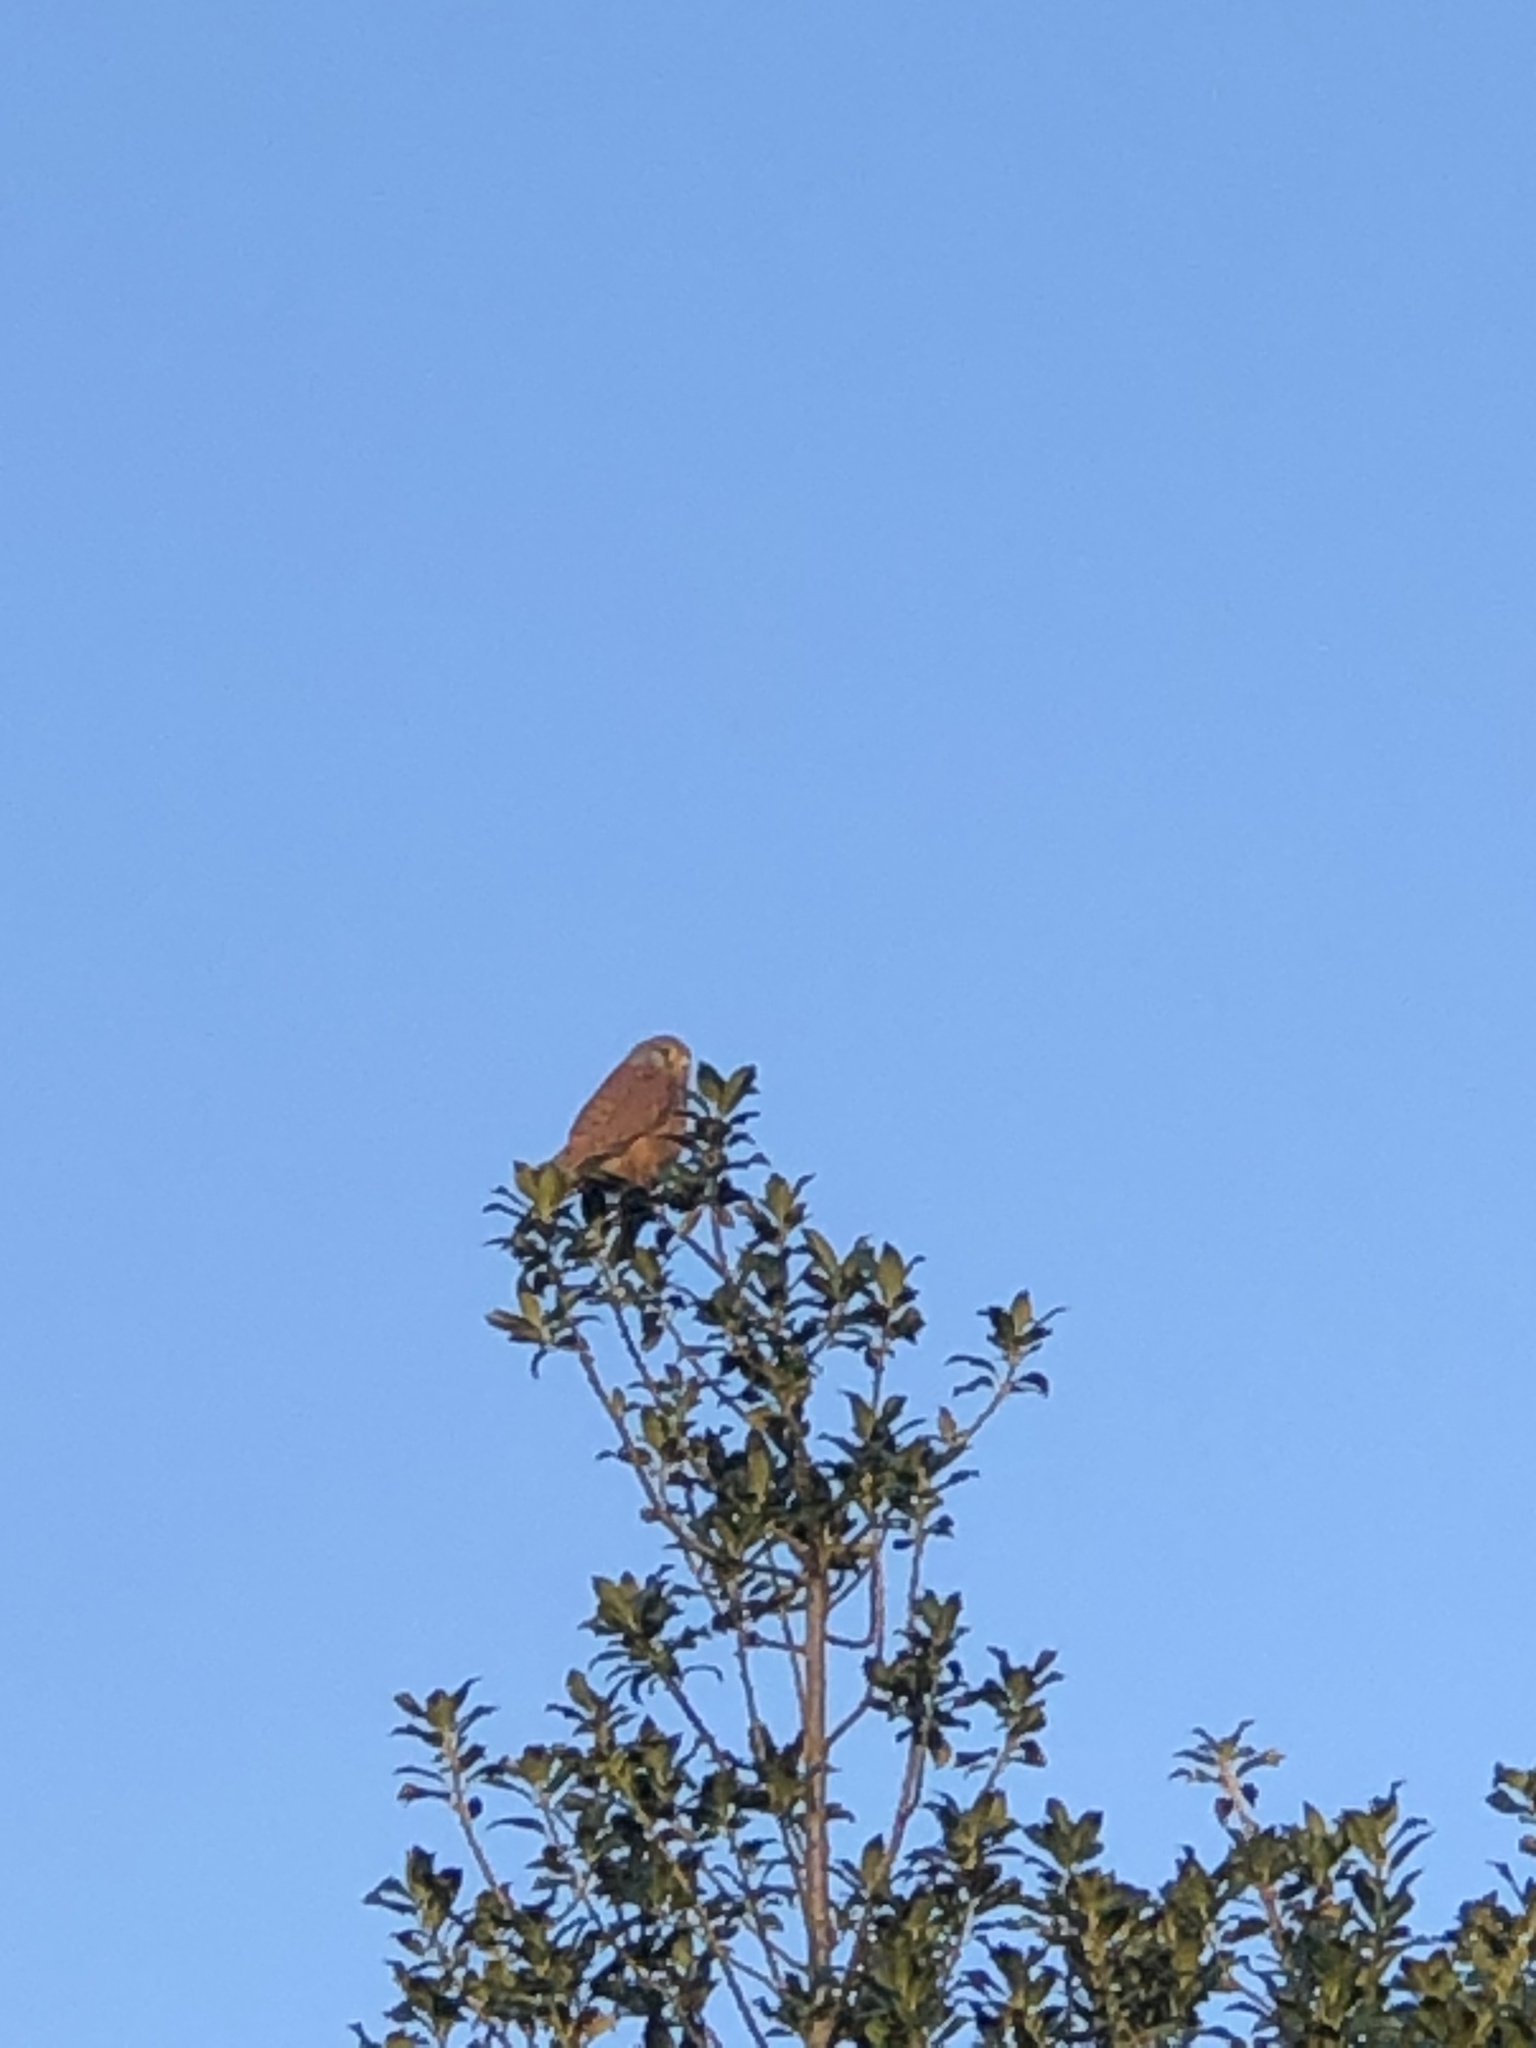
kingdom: Animalia
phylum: Chordata
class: Aves
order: Falconiformes
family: Falconidae
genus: Falco
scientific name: Falco tinnunculus
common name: Common kestrel
